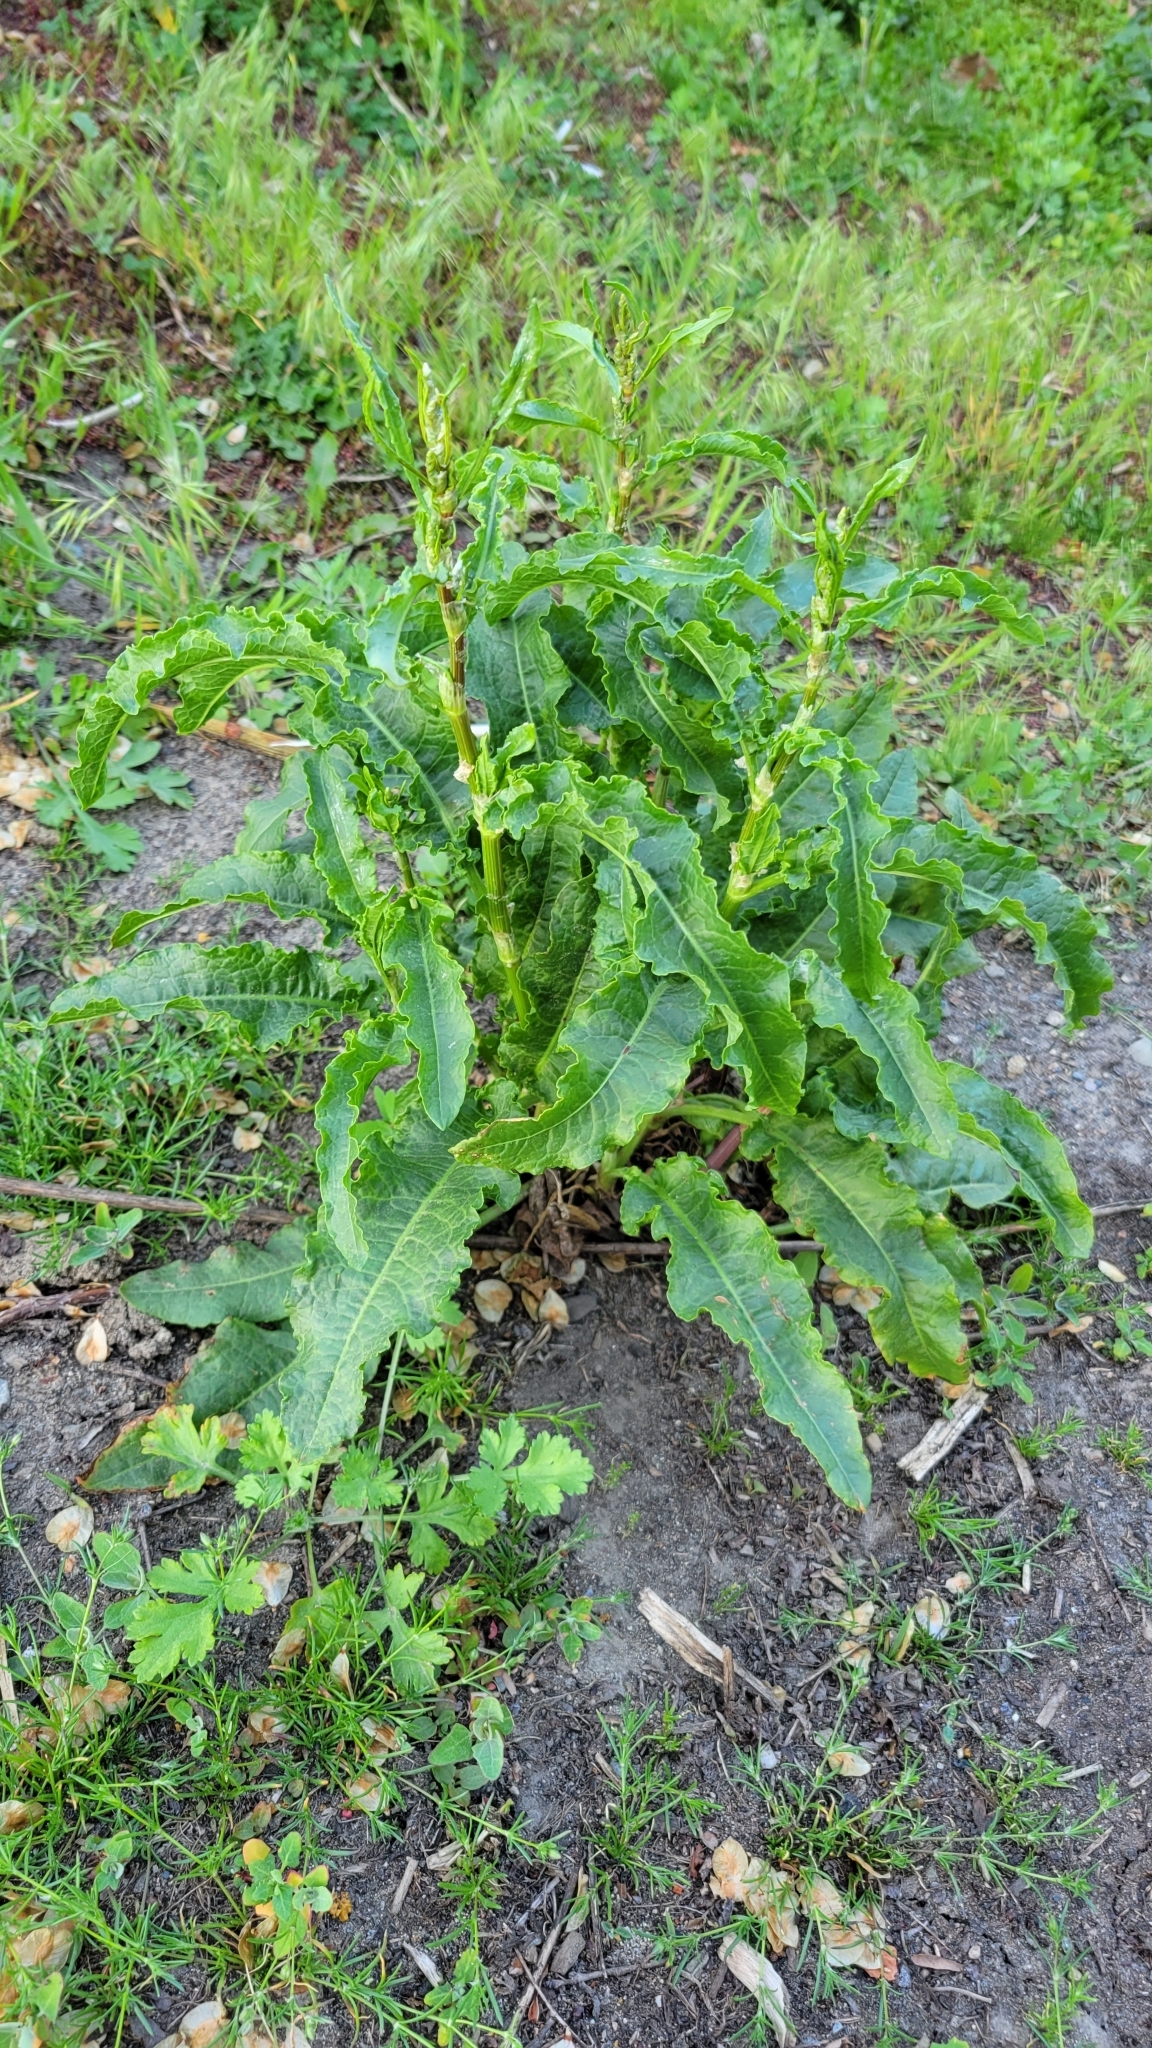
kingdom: Plantae
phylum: Tracheophyta
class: Magnoliopsida
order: Caryophyllales
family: Polygonaceae
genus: Rumex
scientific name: Rumex crispus
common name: Curled dock
